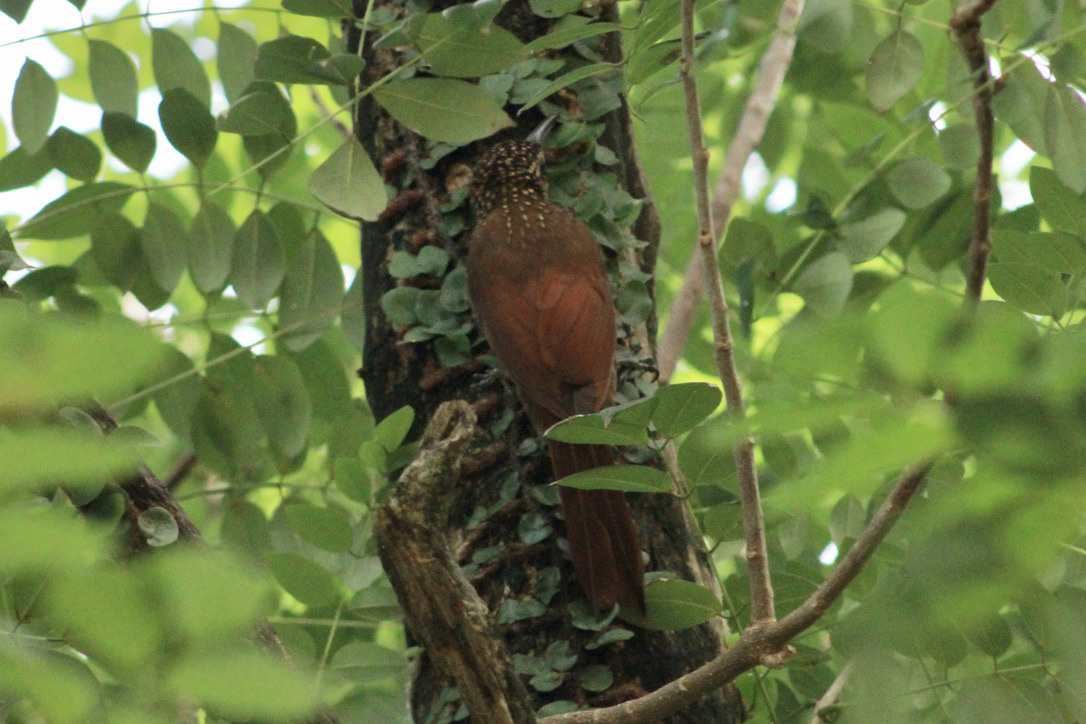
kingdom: Animalia
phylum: Chordata
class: Aves
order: Passeriformes
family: Furnariidae
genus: Xiphorhynchus
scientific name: Xiphorhynchus susurrans
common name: Cocoa woodcreeper
